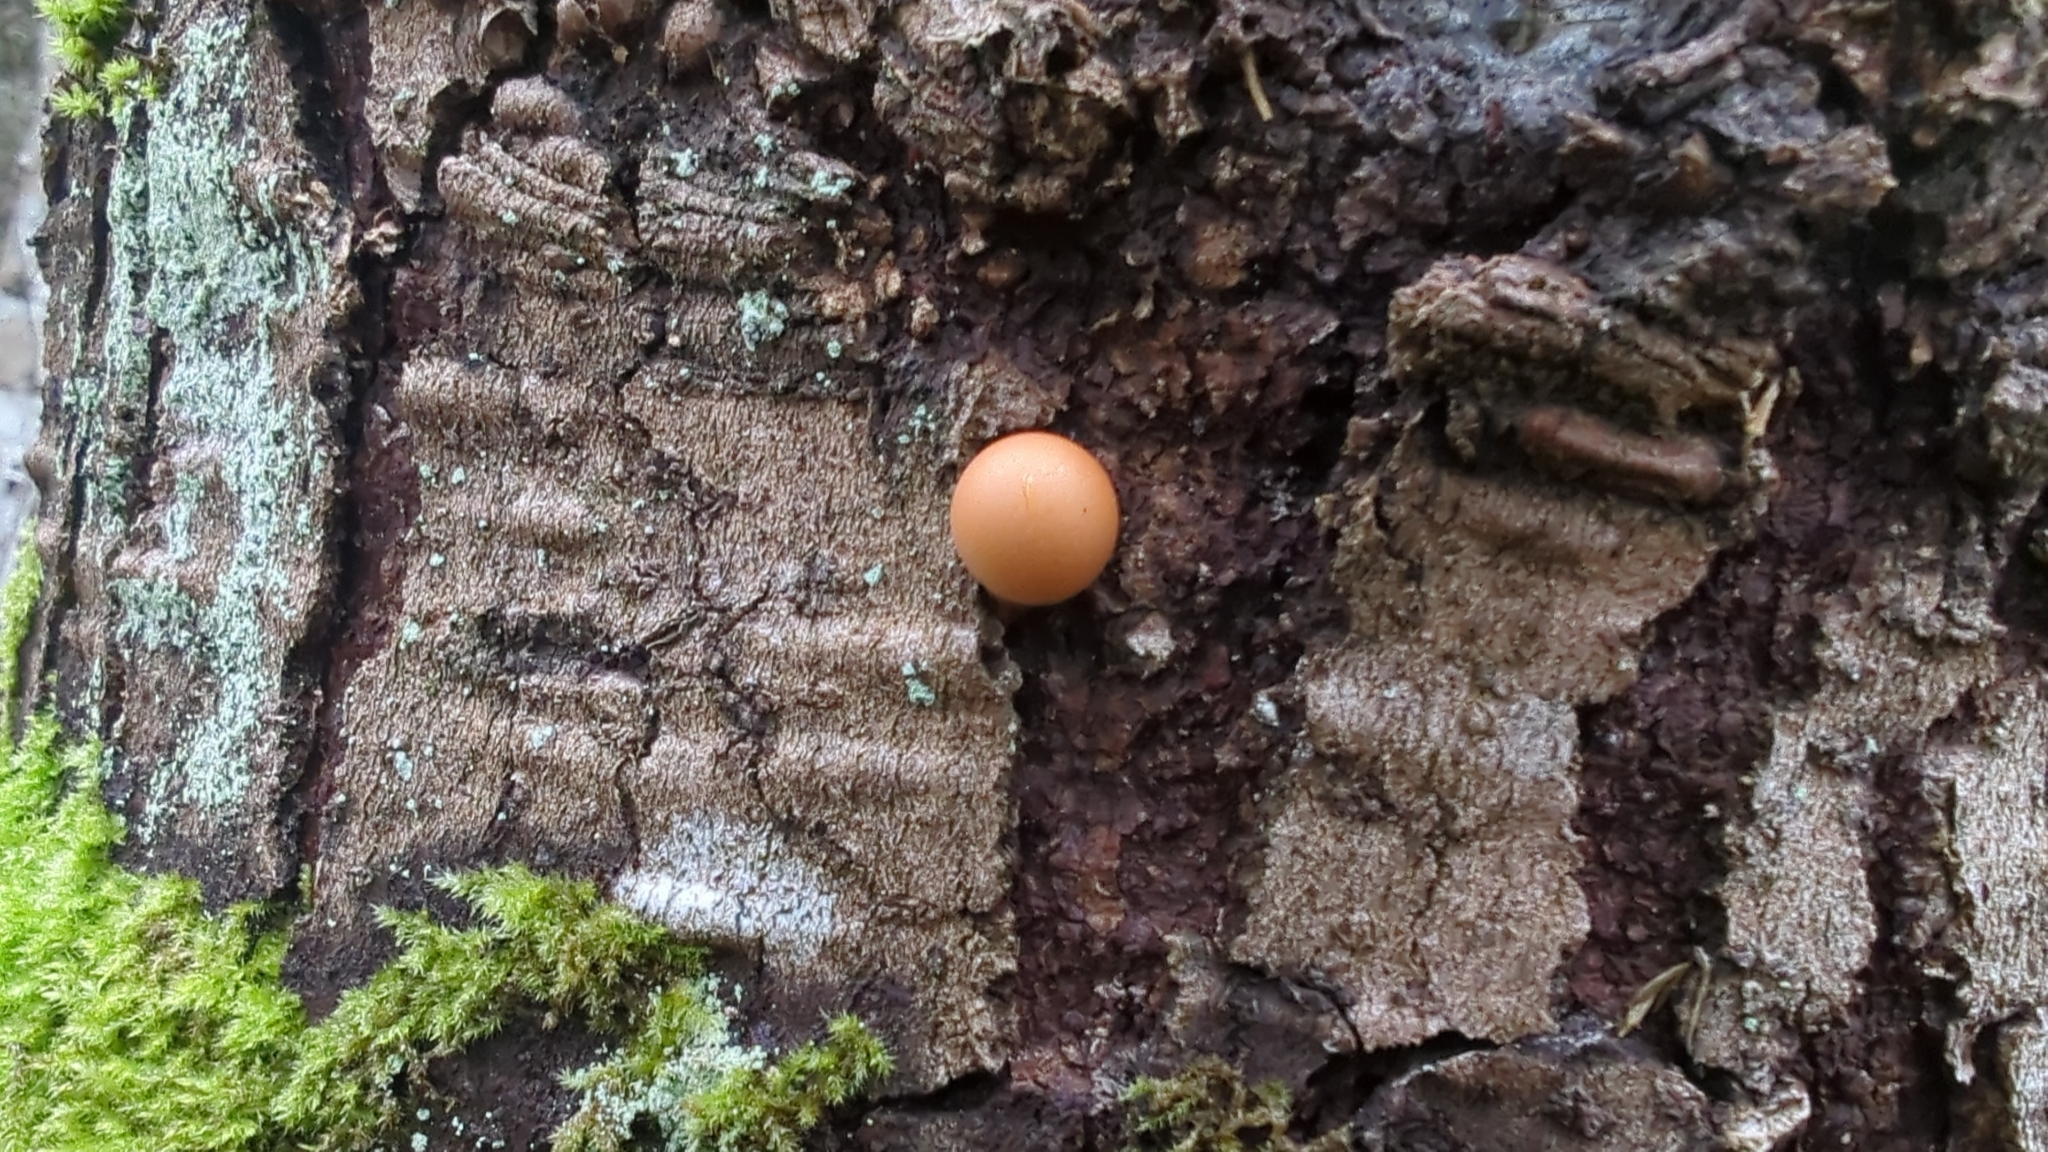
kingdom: Fungi
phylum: Basidiomycota
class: Agaricomycetes
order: Polyporales
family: Polyporaceae
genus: Cryptoporus
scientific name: Cryptoporus volvatus
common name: Veiled polypore
